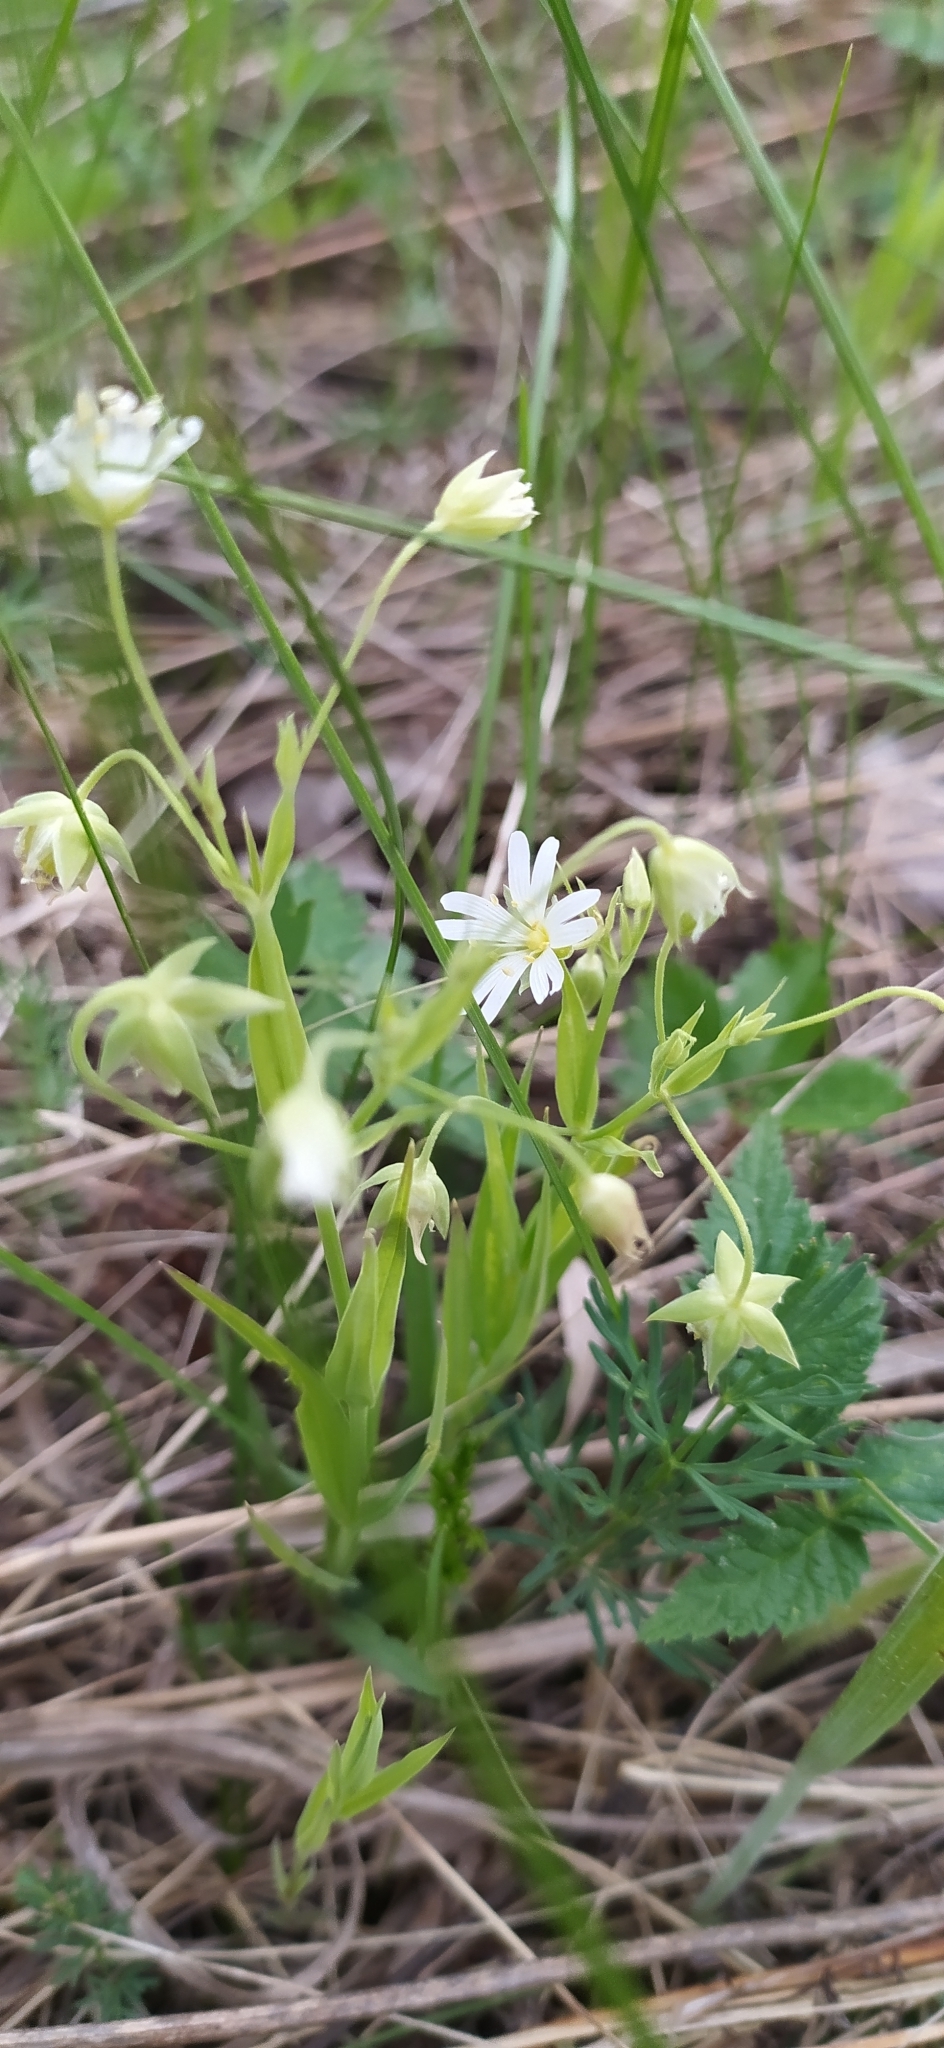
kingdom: Plantae
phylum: Tracheophyta
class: Magnoliopsida
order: Caryophyllales
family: Caryophyllaceae
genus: Rabelera
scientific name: Rabelera holostea
